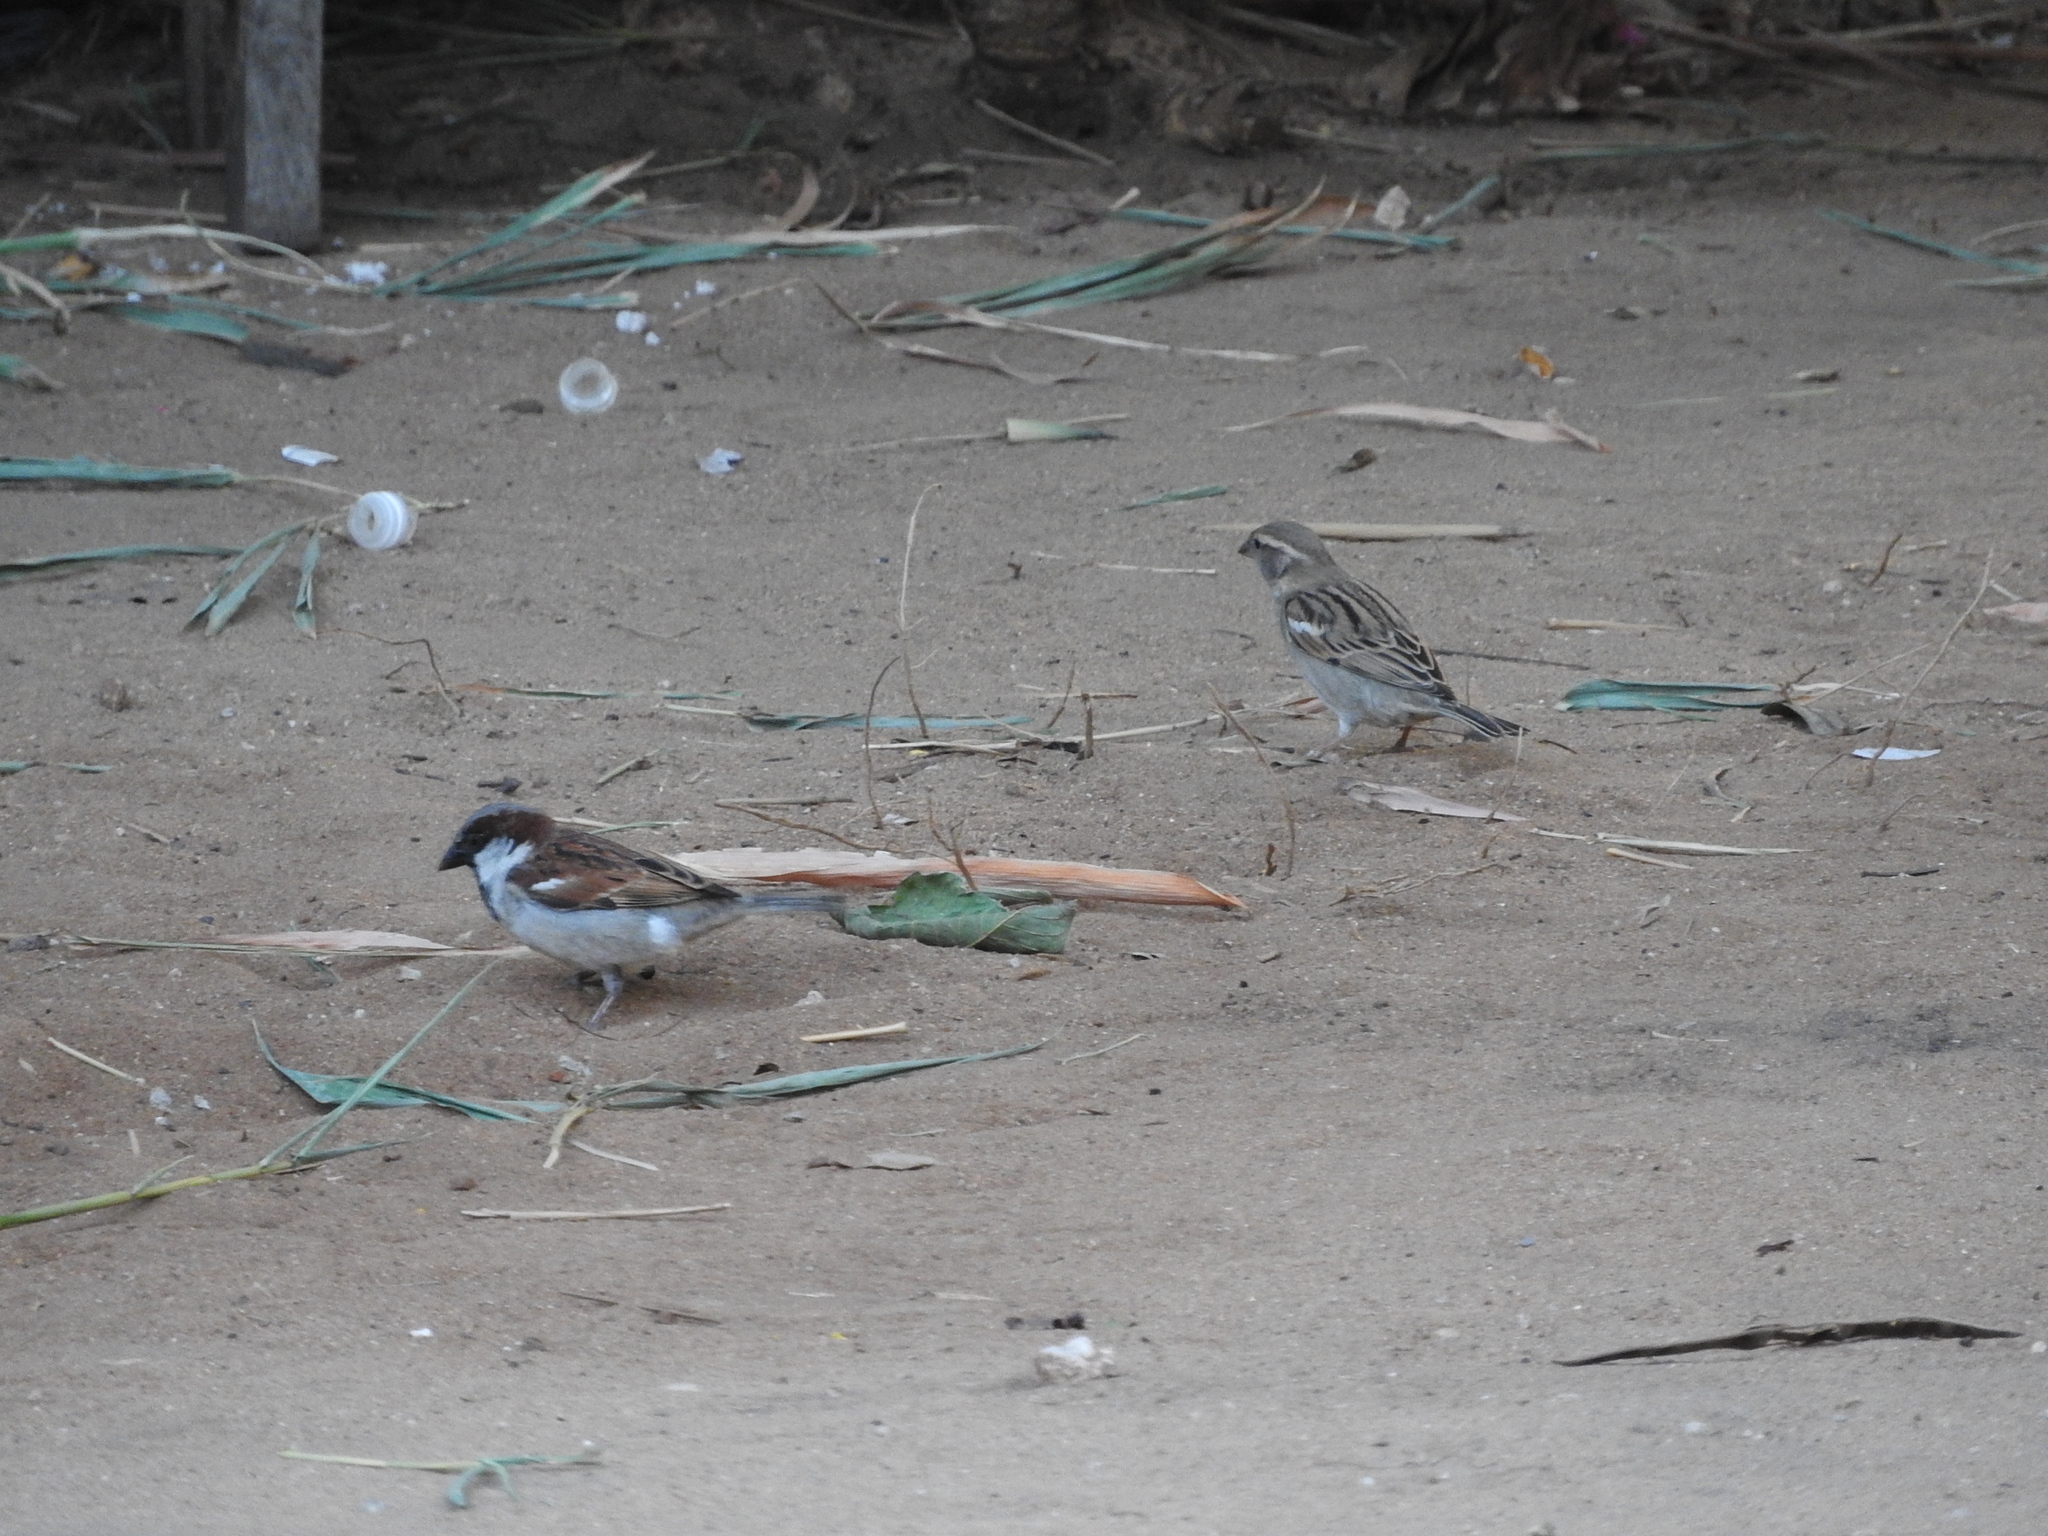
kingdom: Animalia
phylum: Chordata
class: Aves
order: Passeriformes
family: Passeridae
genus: Passer
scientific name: Passer domesticus
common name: House sparrow
